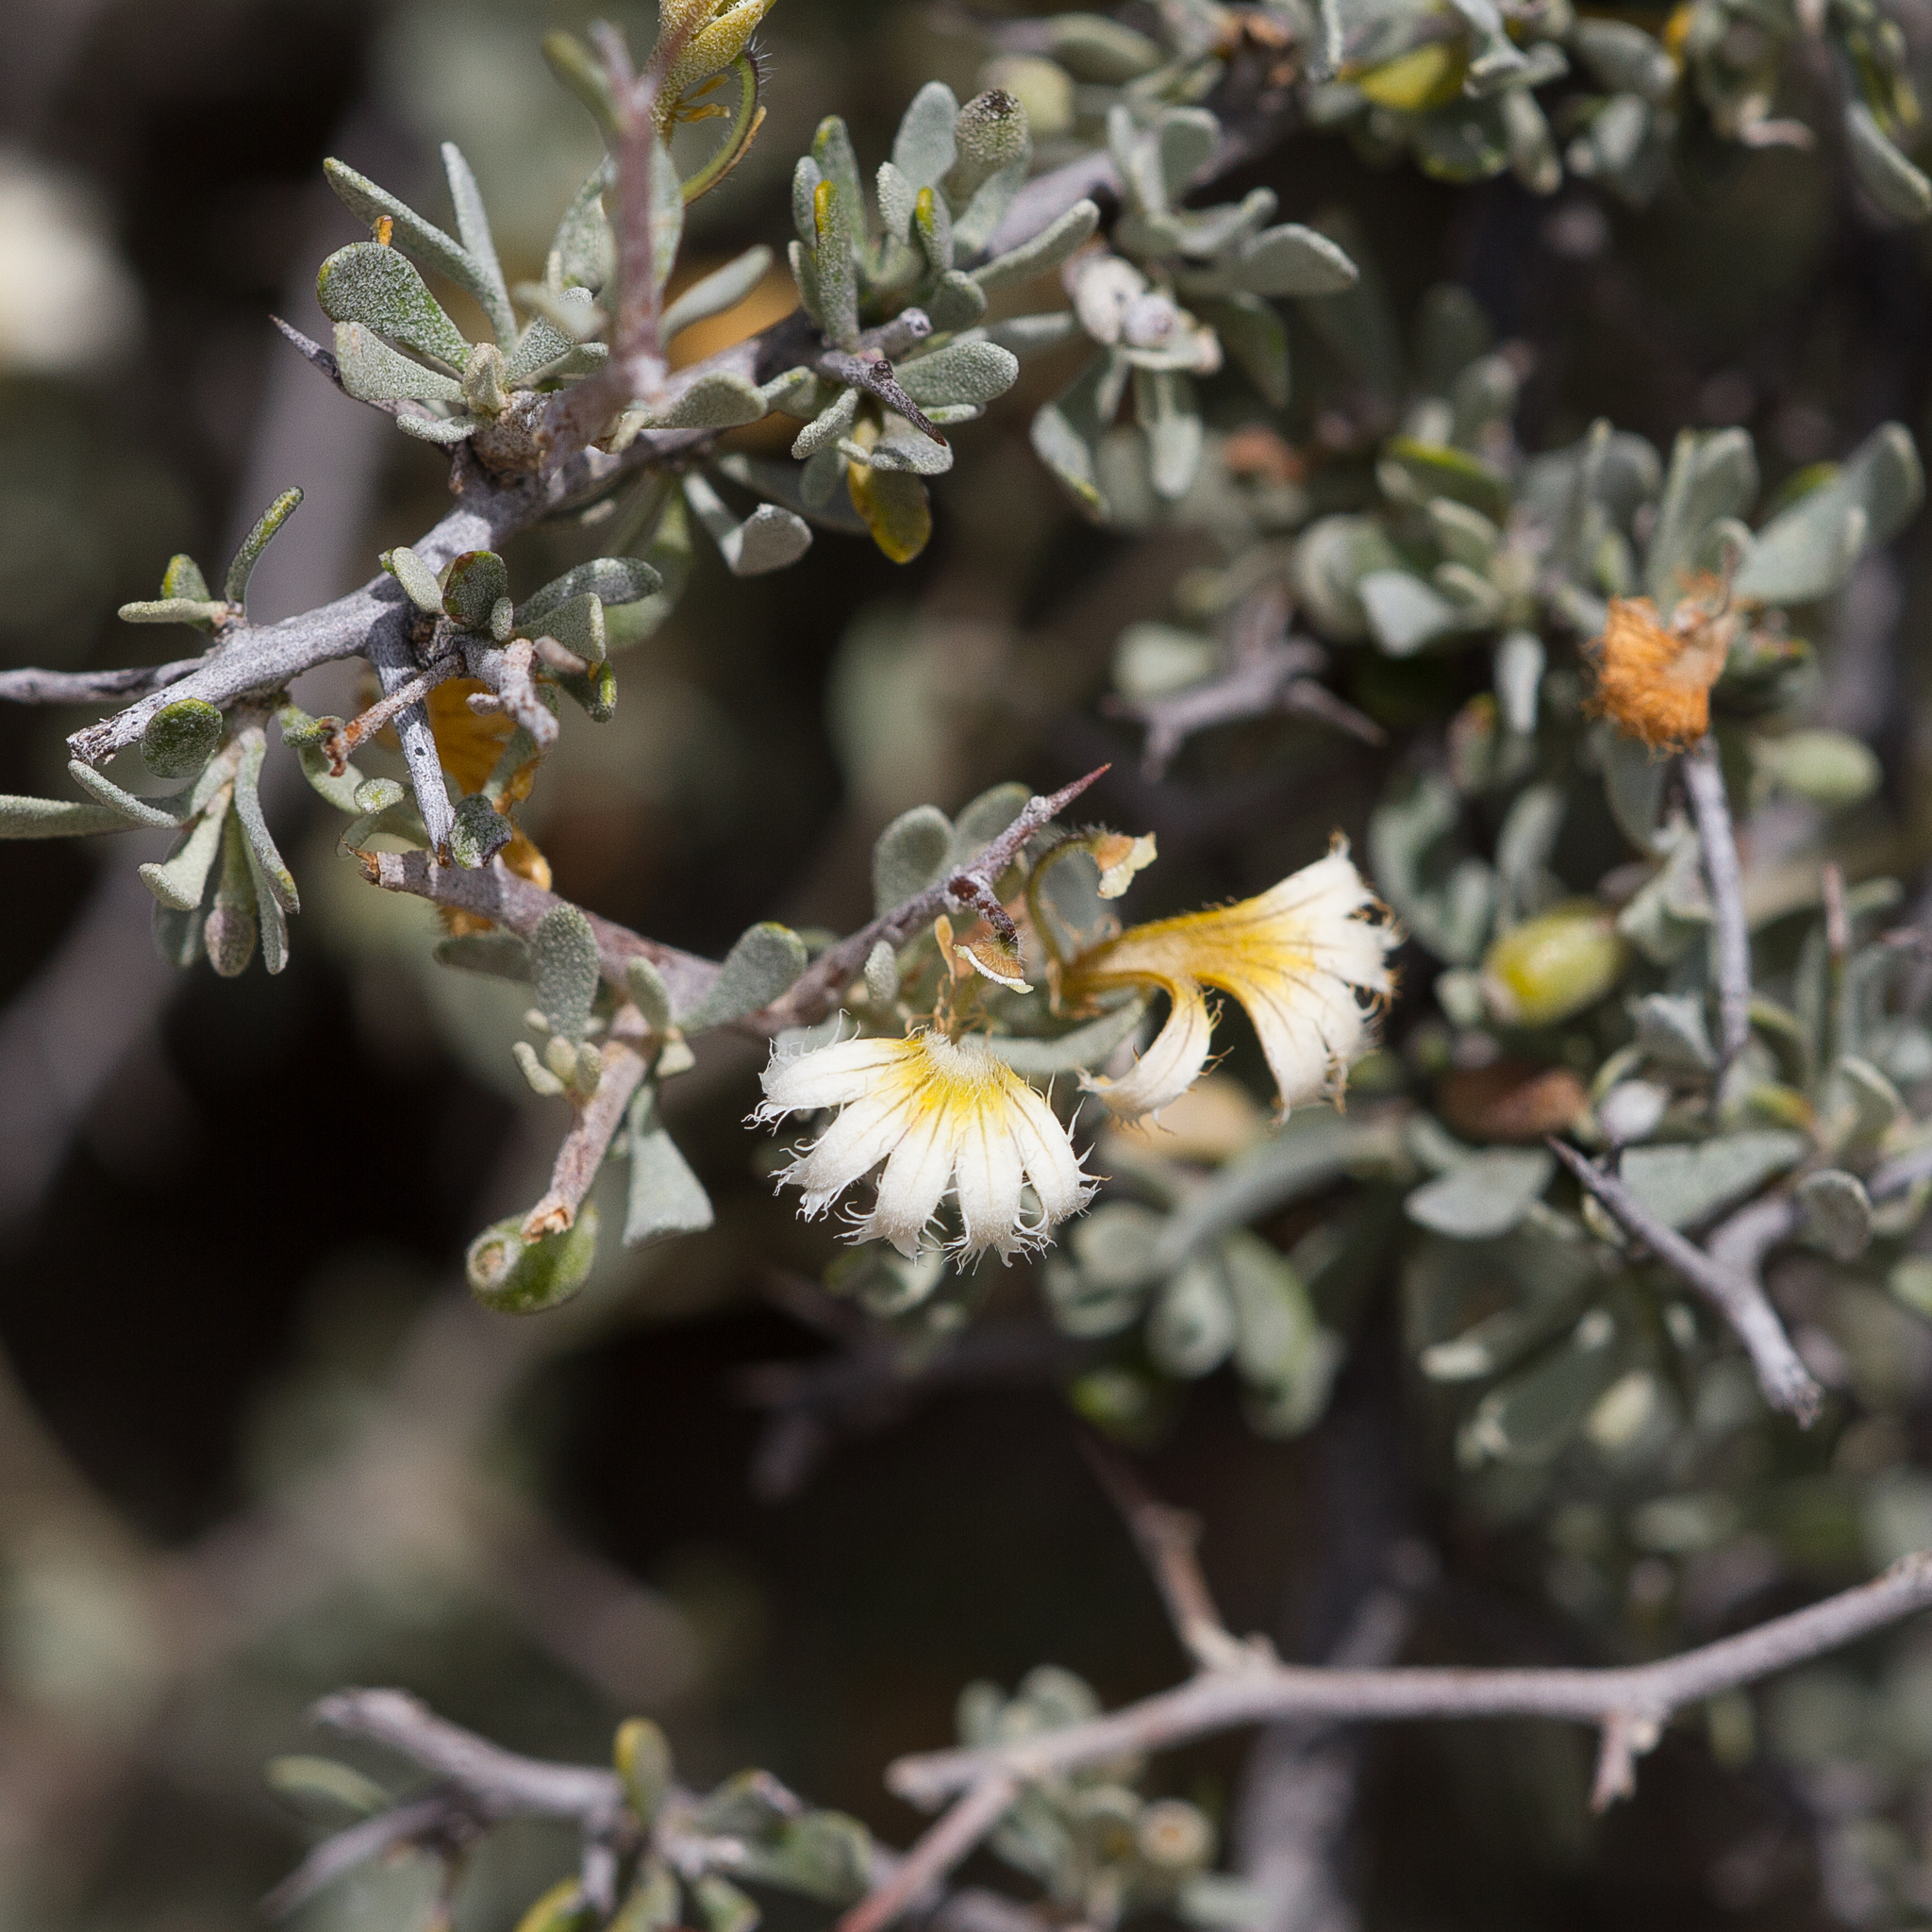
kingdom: Plantae
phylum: Tracheophyta
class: Magnoliopsida
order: Asterales
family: Goodeniaceae
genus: Scaevola
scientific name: Scaevola spinescens
